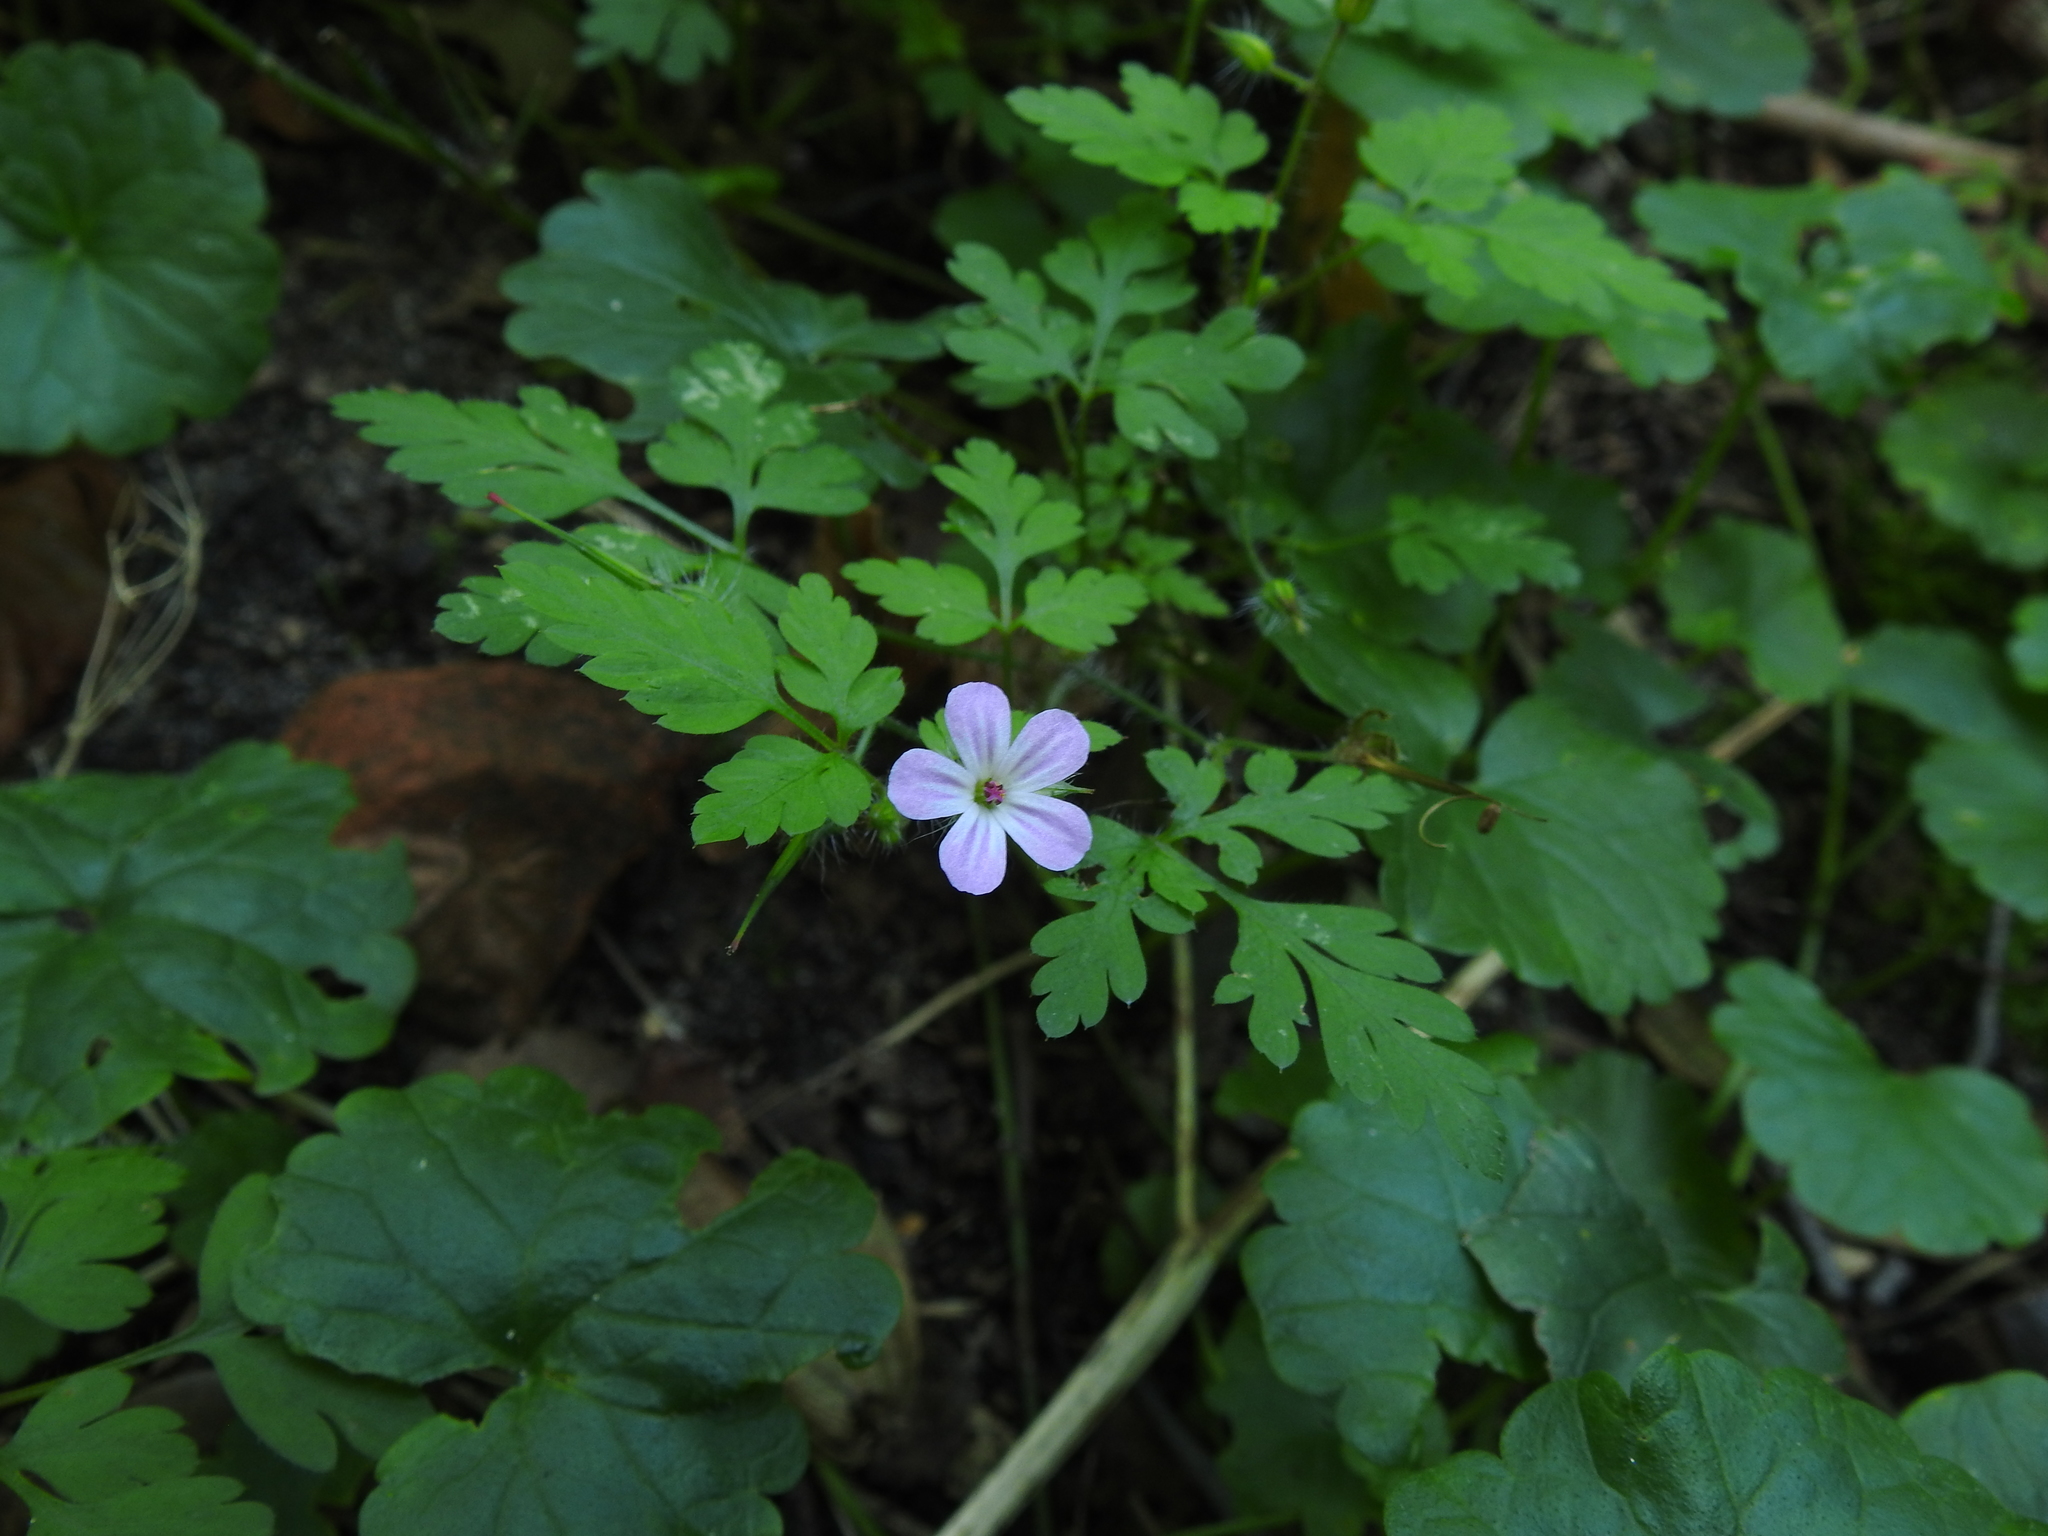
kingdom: Plantae
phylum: Tracheophyta
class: Magnoliopsida
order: Geraniales
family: Geraniaceae
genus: Geranium
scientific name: Geranium robertianum
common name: Herb-robert
